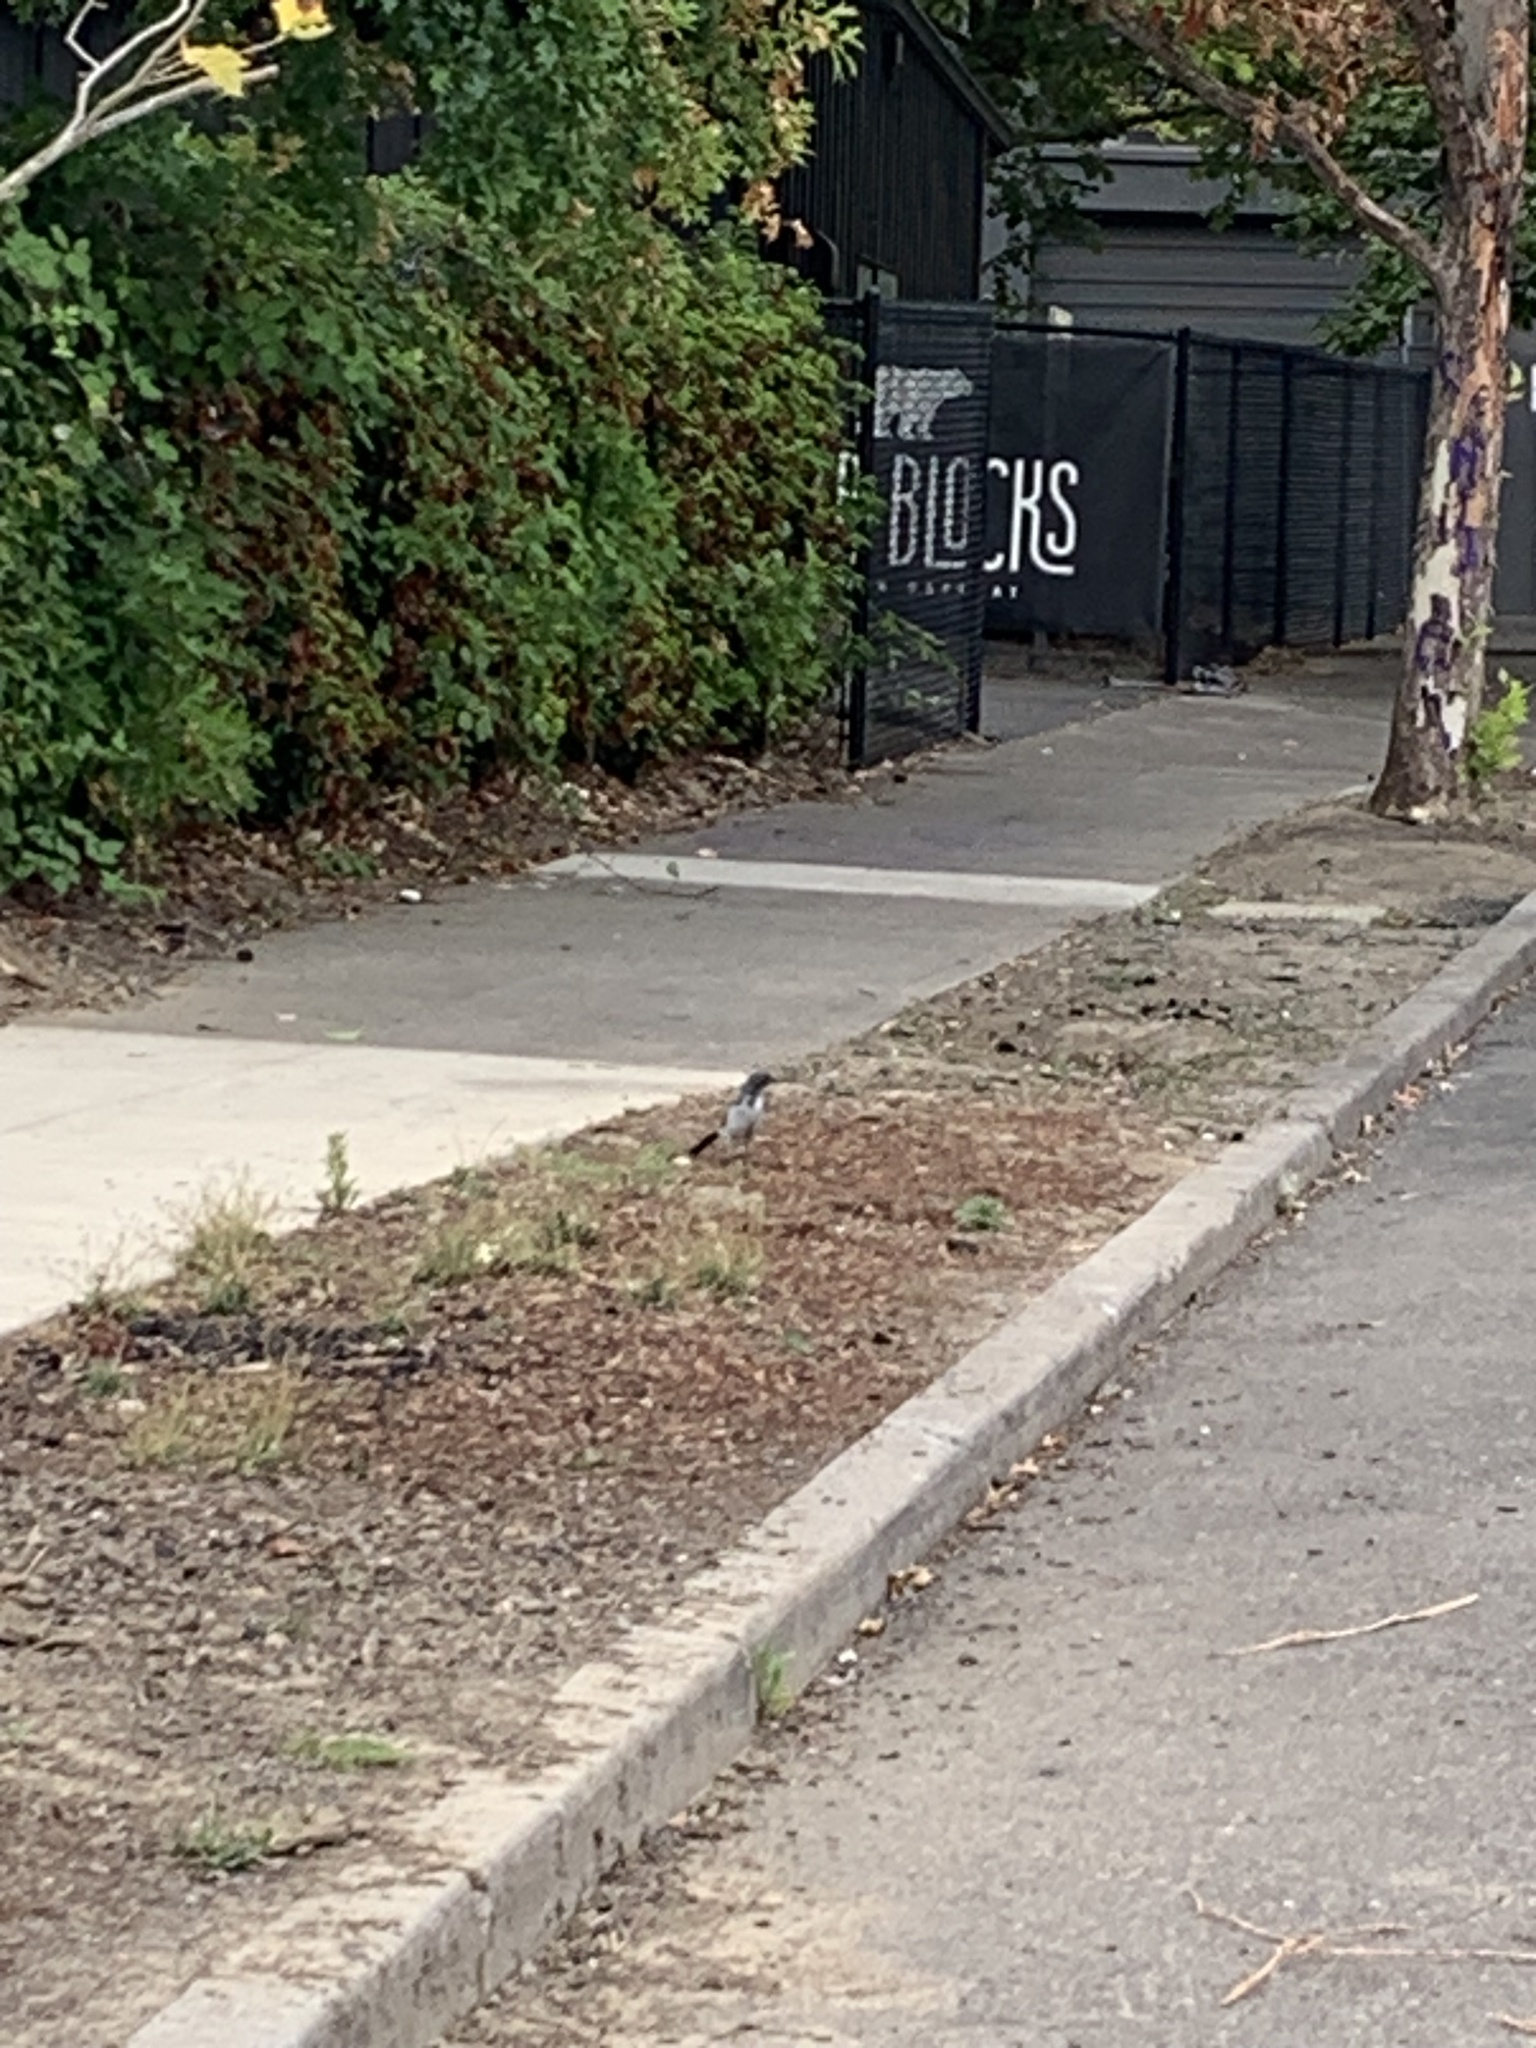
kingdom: Animalia
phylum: Chordata
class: Aves
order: Passeriformes
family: Corvidae
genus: Aphelocoma
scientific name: Aphelocoma californica
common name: California scrub-jay
